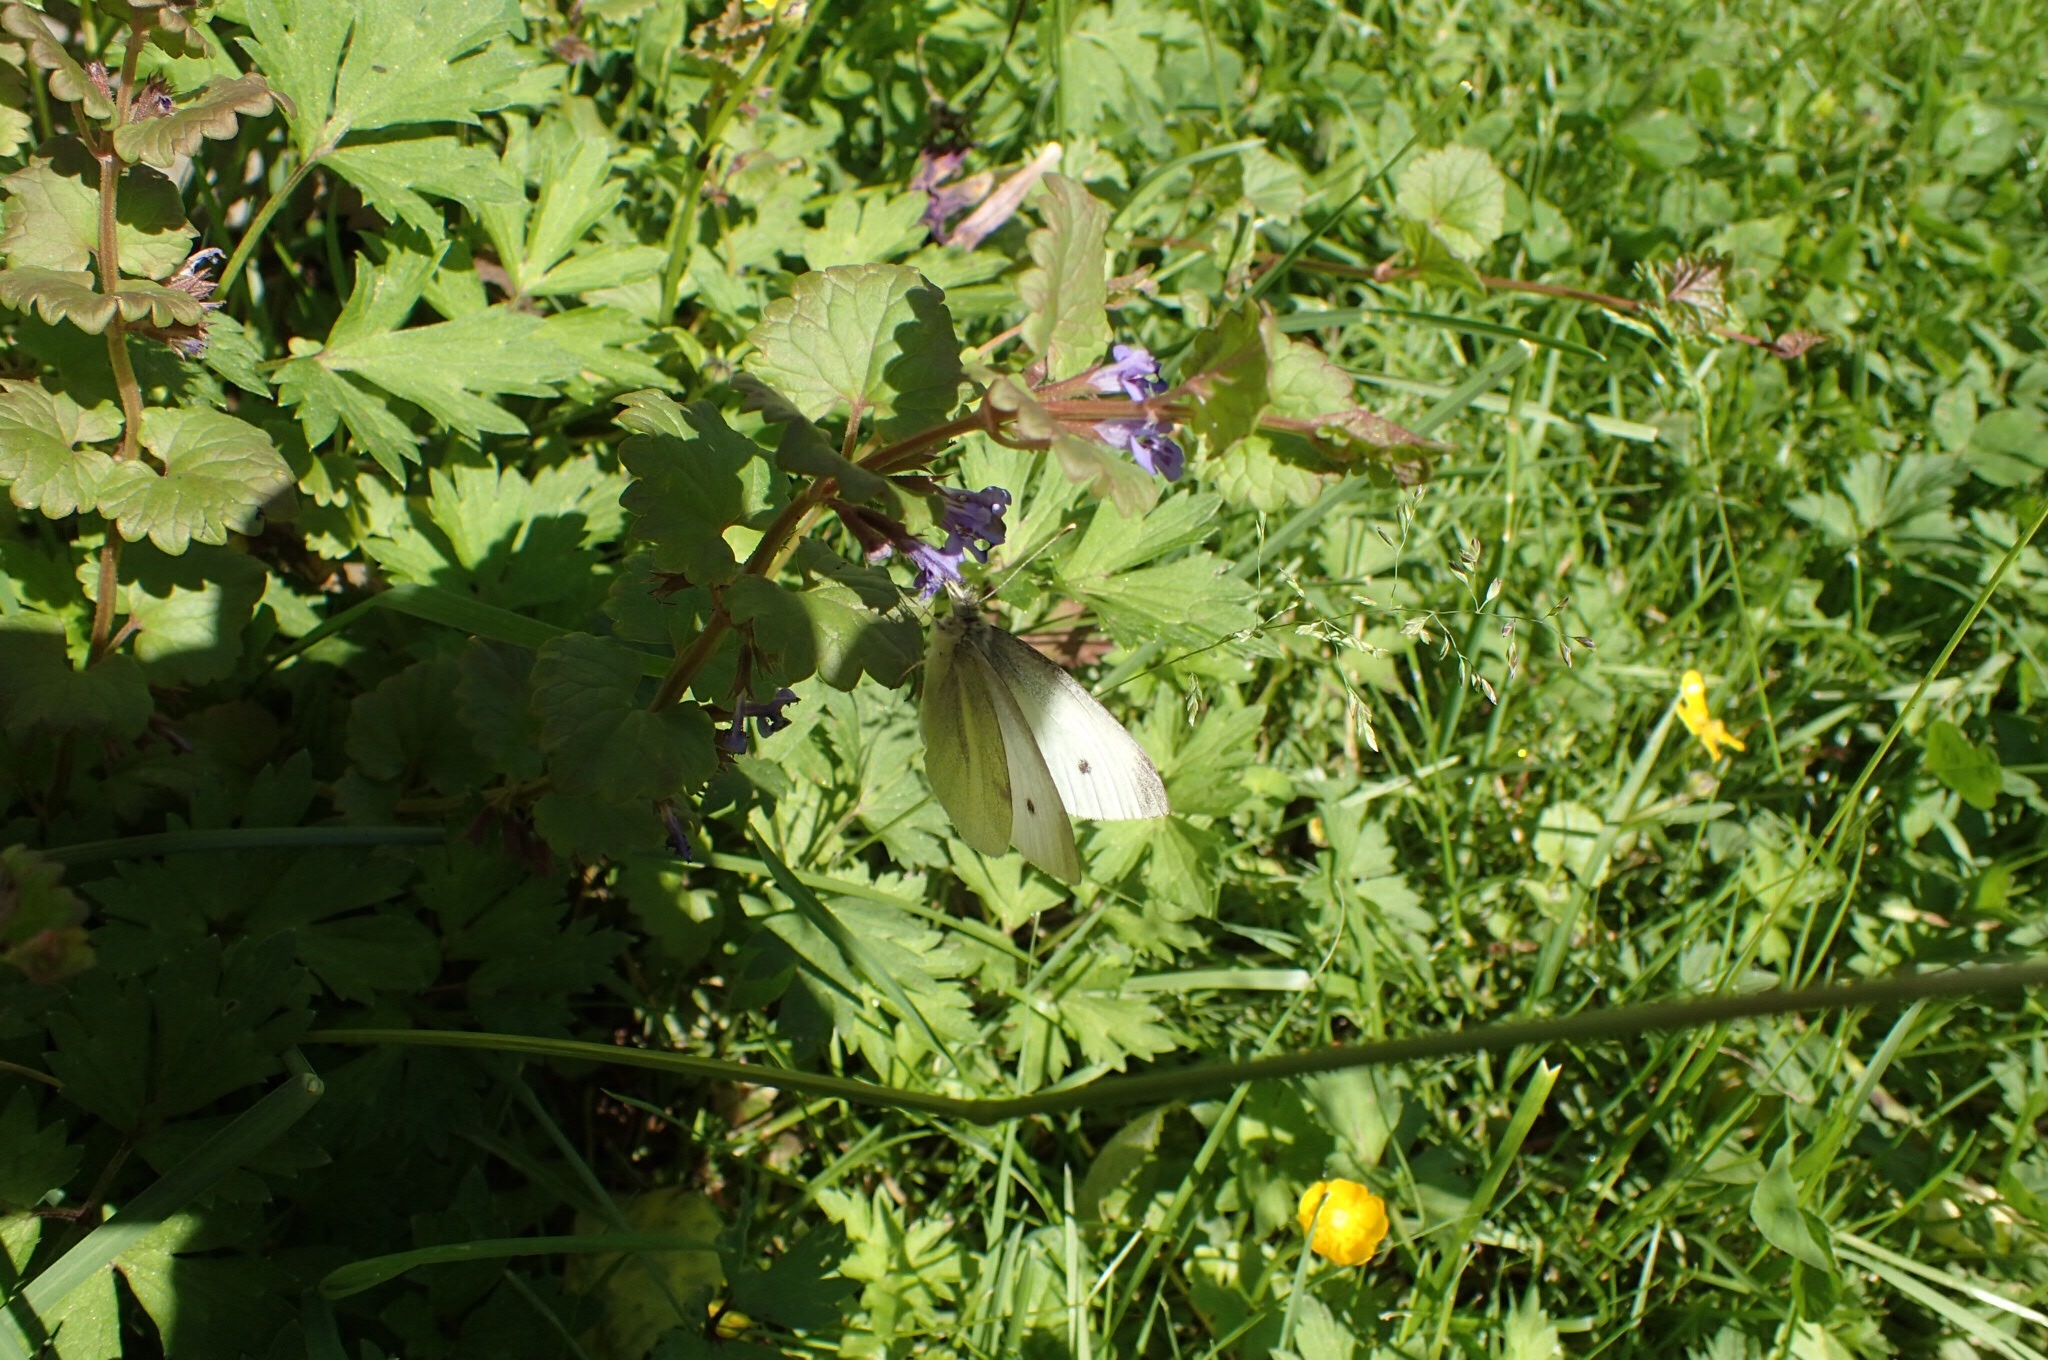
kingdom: Animalia
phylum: Arthropoda
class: Insecta
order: Lepidoptera
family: Pieridae
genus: Pieris
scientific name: Pieris rapae
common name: Small white
